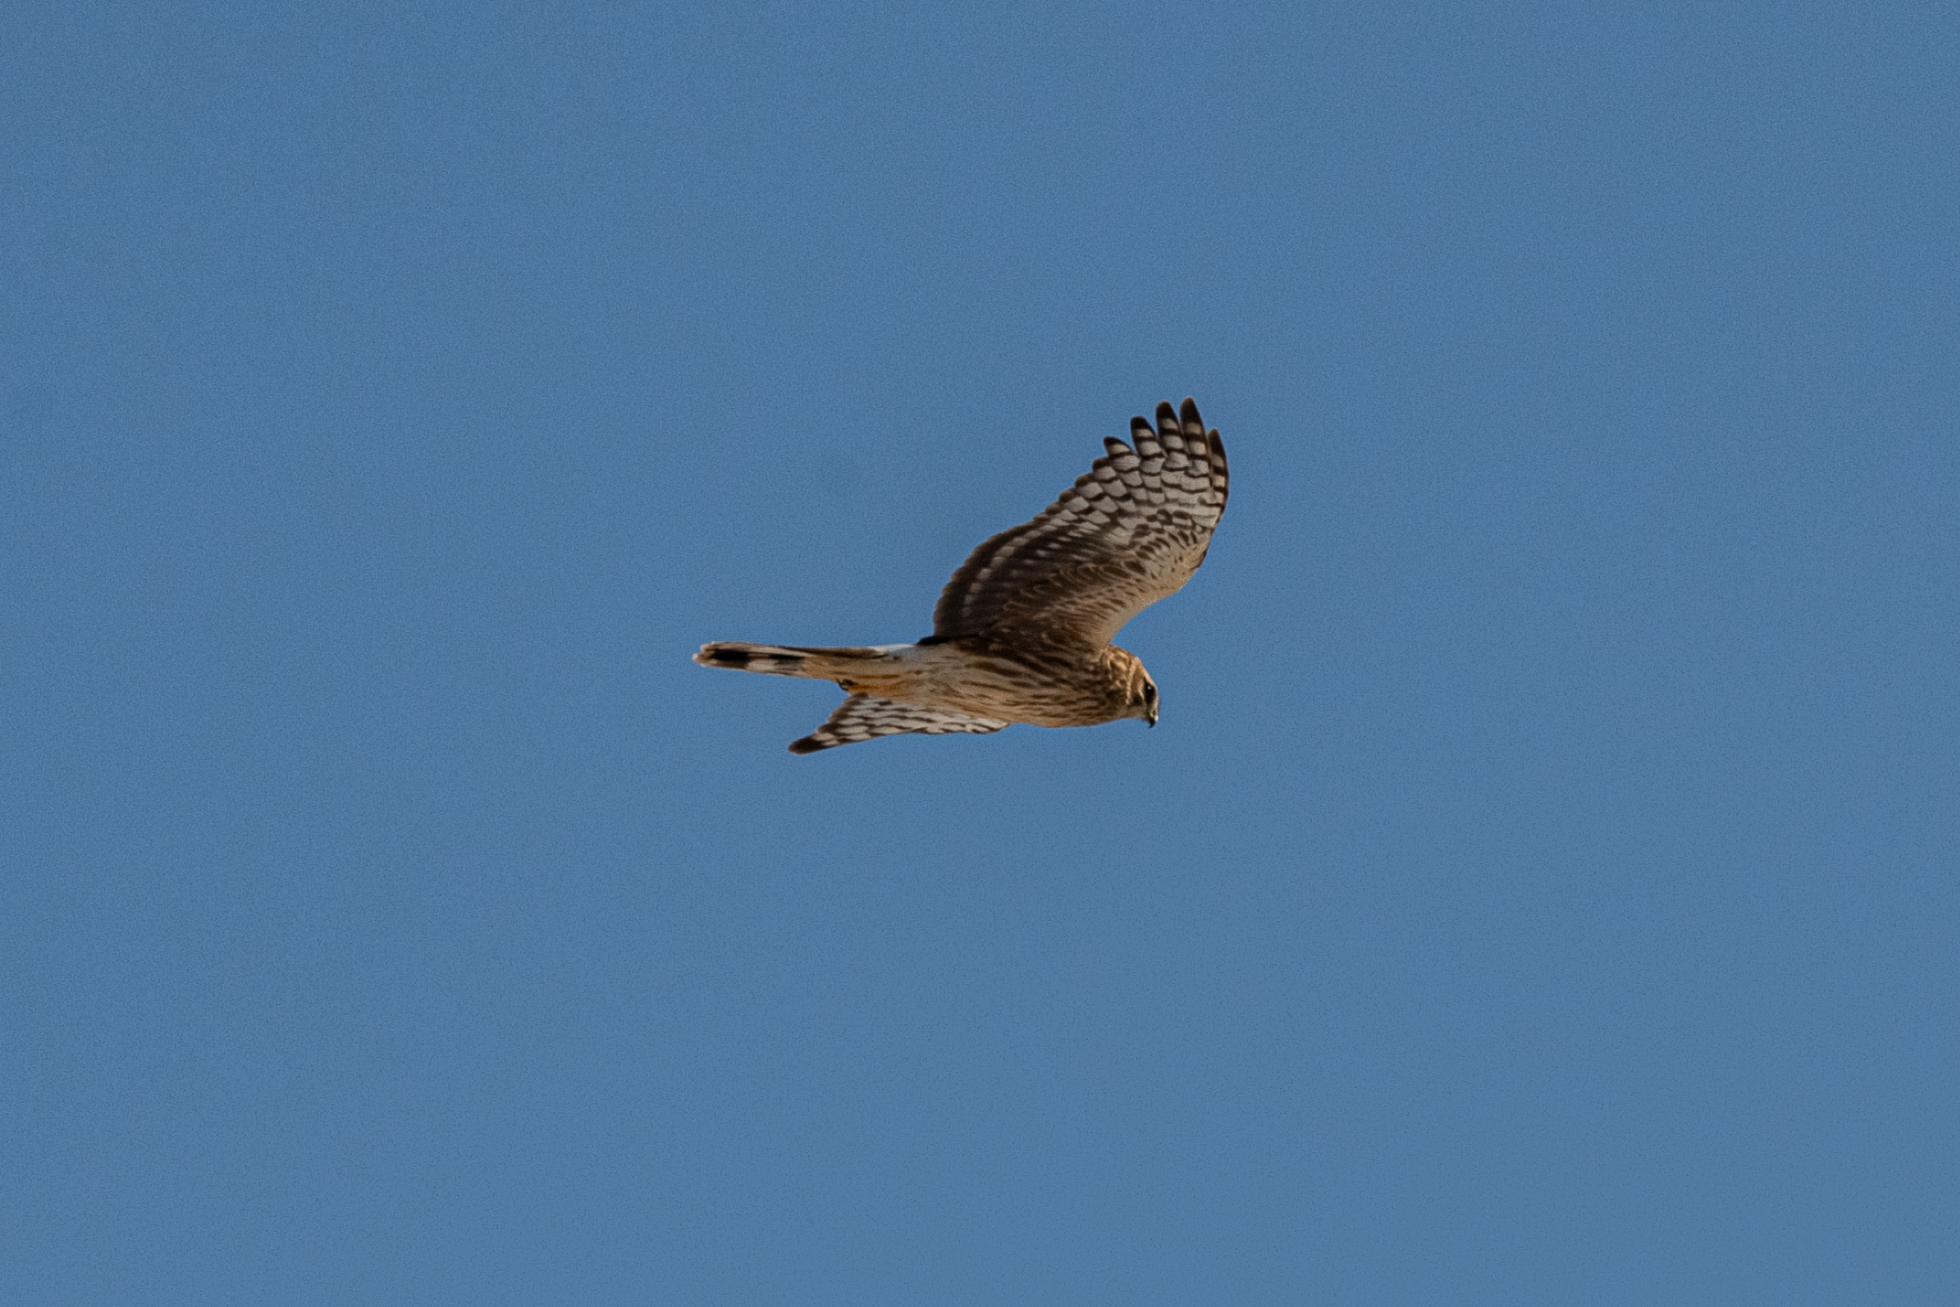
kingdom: Animalia
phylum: Chordata
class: Aves
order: Accipitriformes
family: Accipitridae
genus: Circus
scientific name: Circus cyaneus
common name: Hen harrier
